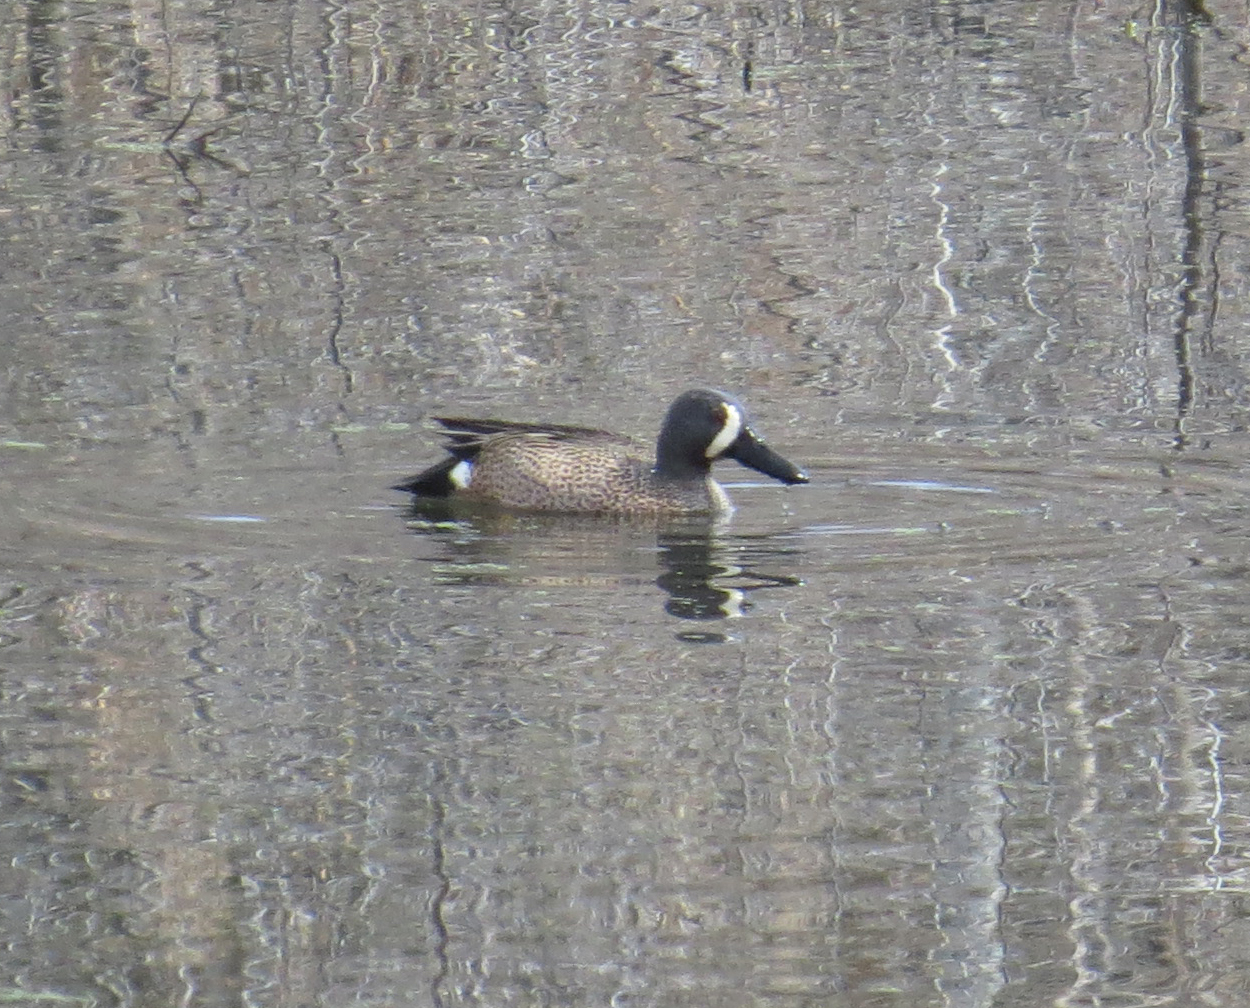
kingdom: Animalia
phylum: Chordata
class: Aves
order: Anseriformes
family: Anatidae
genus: Spatula
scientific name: Spatula discors
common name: Blue-winged teal
